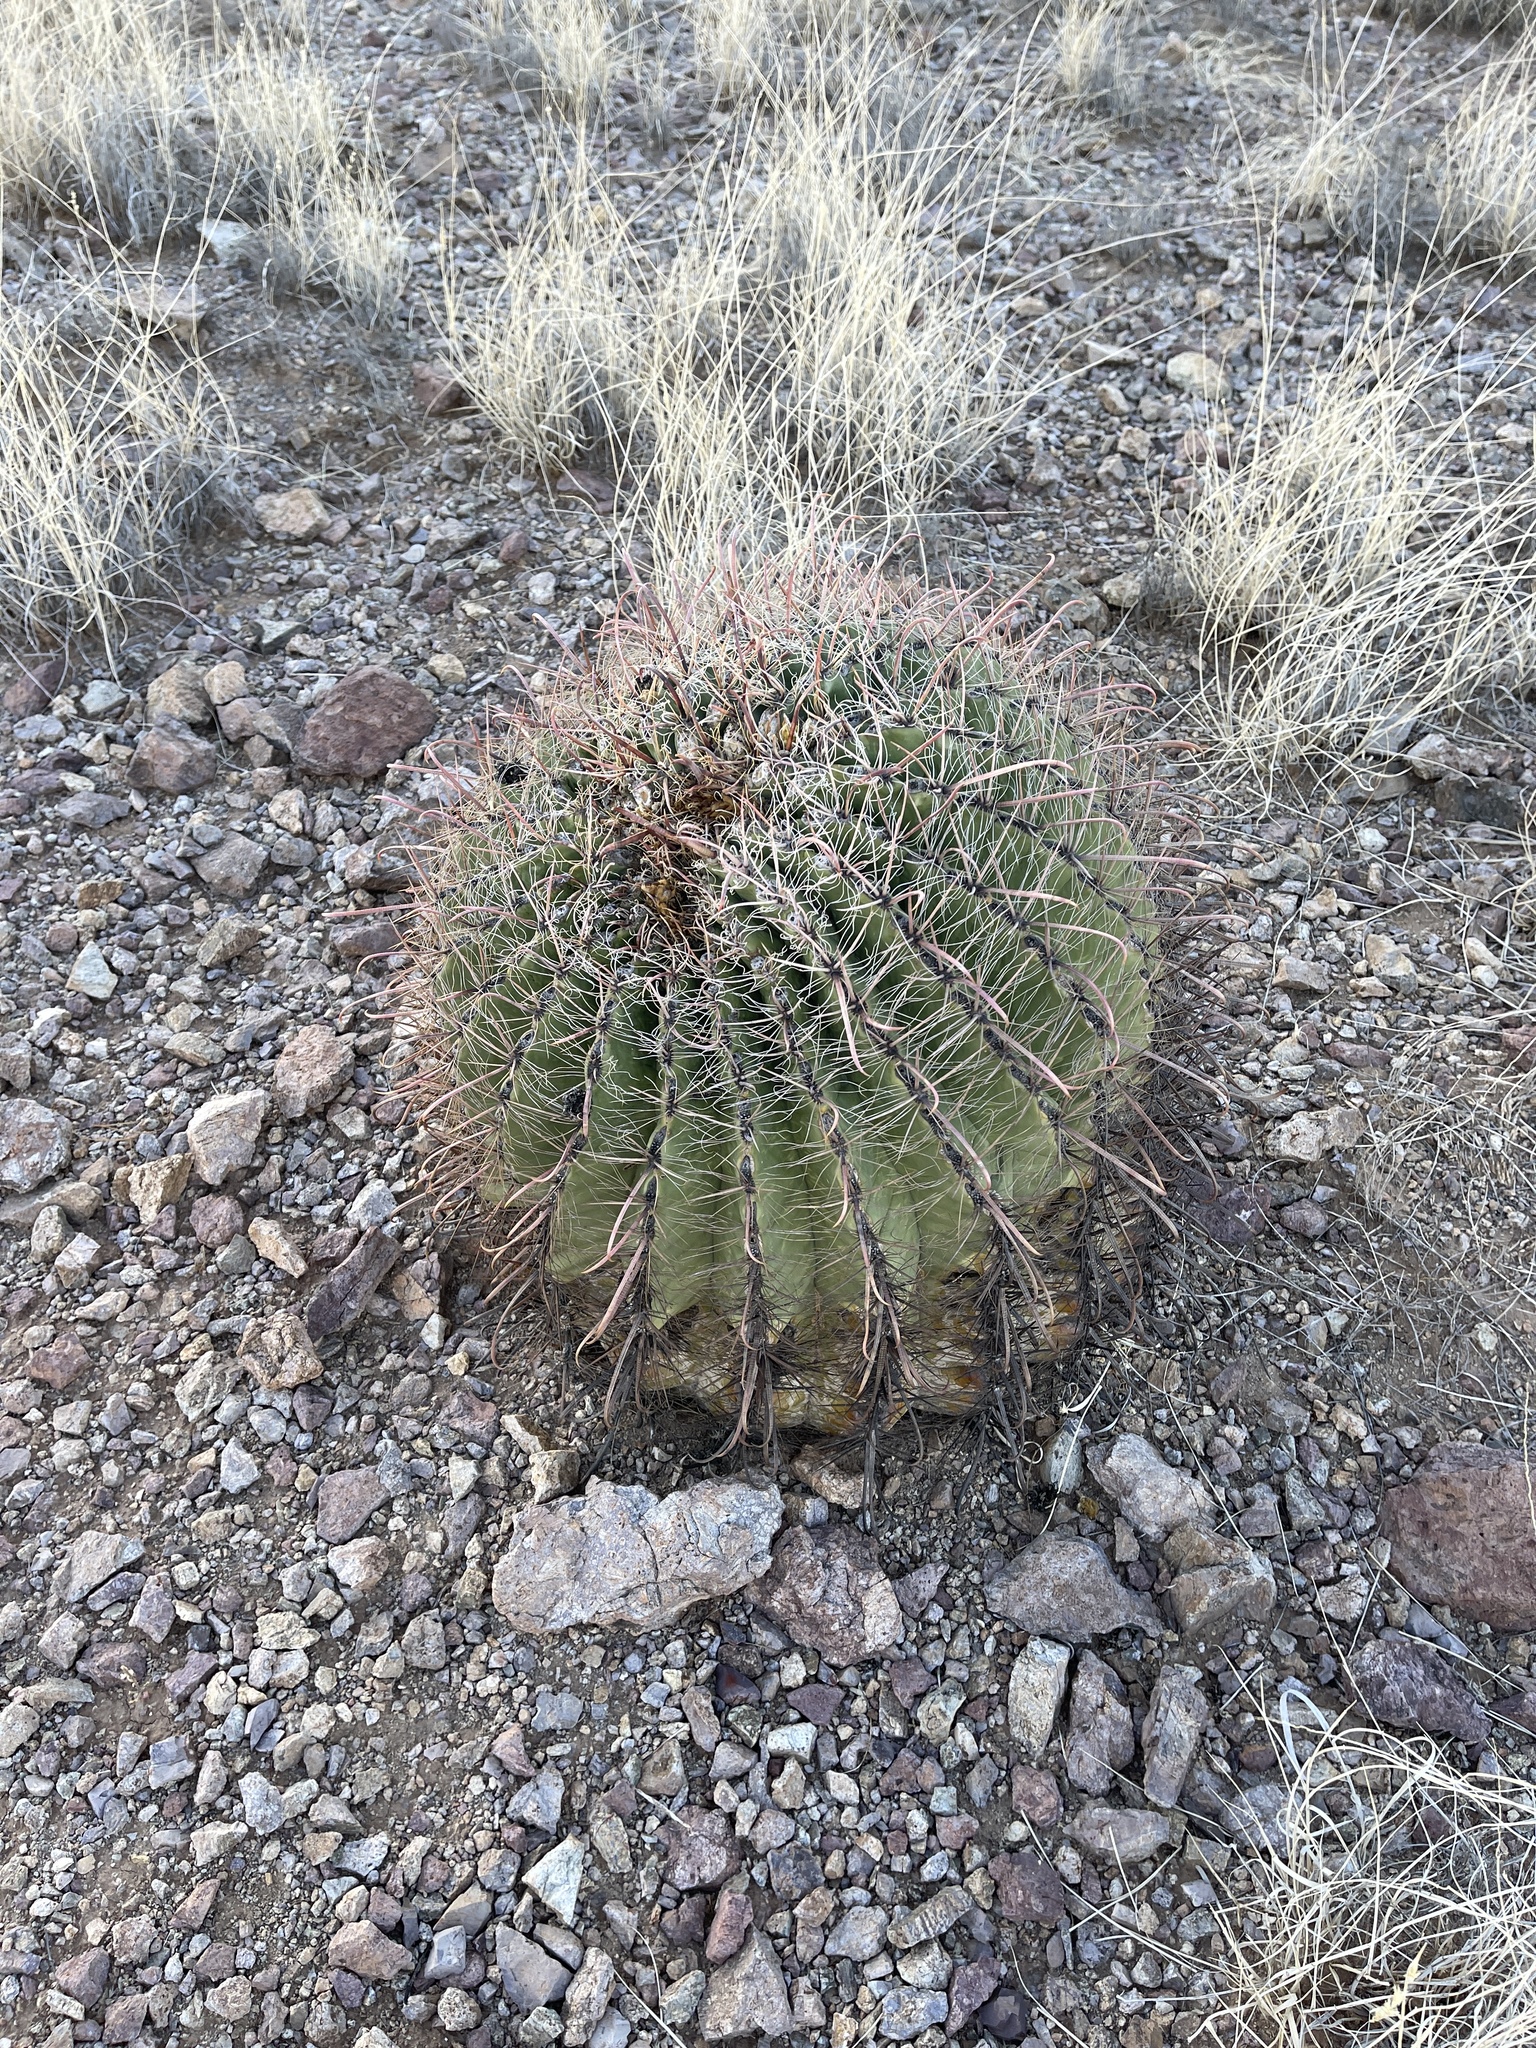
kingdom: Plantae
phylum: Tracheophyta
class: Magnoliopsida
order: Caryophyllales
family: Cactaceae
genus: Ferocactus
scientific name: Ferocactus wislizeni
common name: Candy barrel cactus
